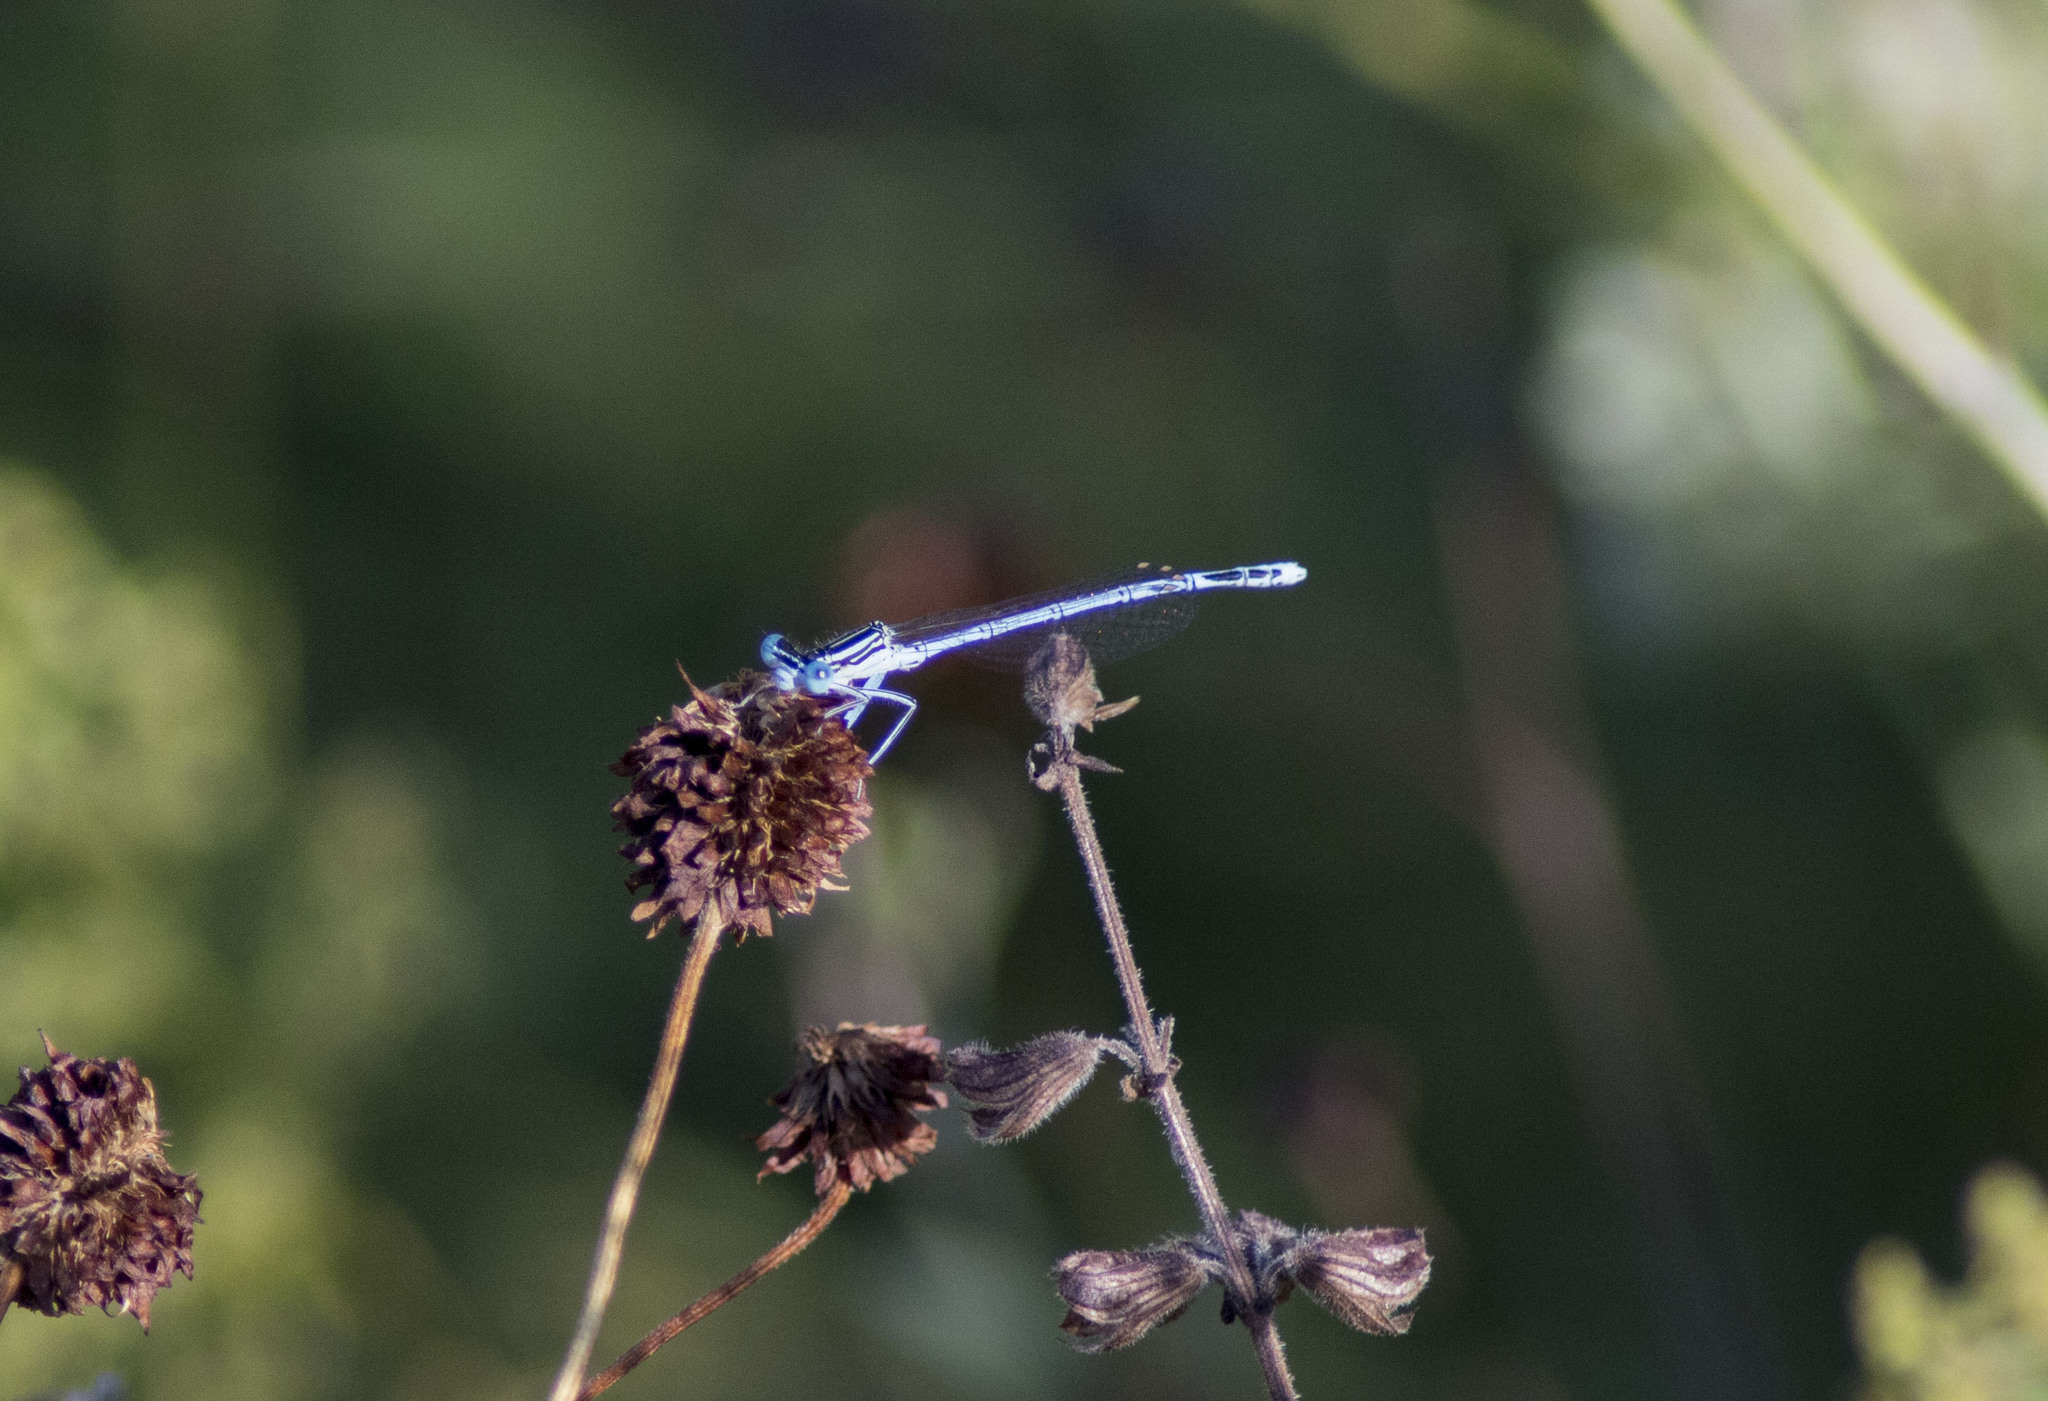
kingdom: Animalia
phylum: Arthropoda
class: Insecta
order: Odonata
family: Platycnemididae
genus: Platycnemis
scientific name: Platycnemis pennipes
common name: White-legged damselfly
